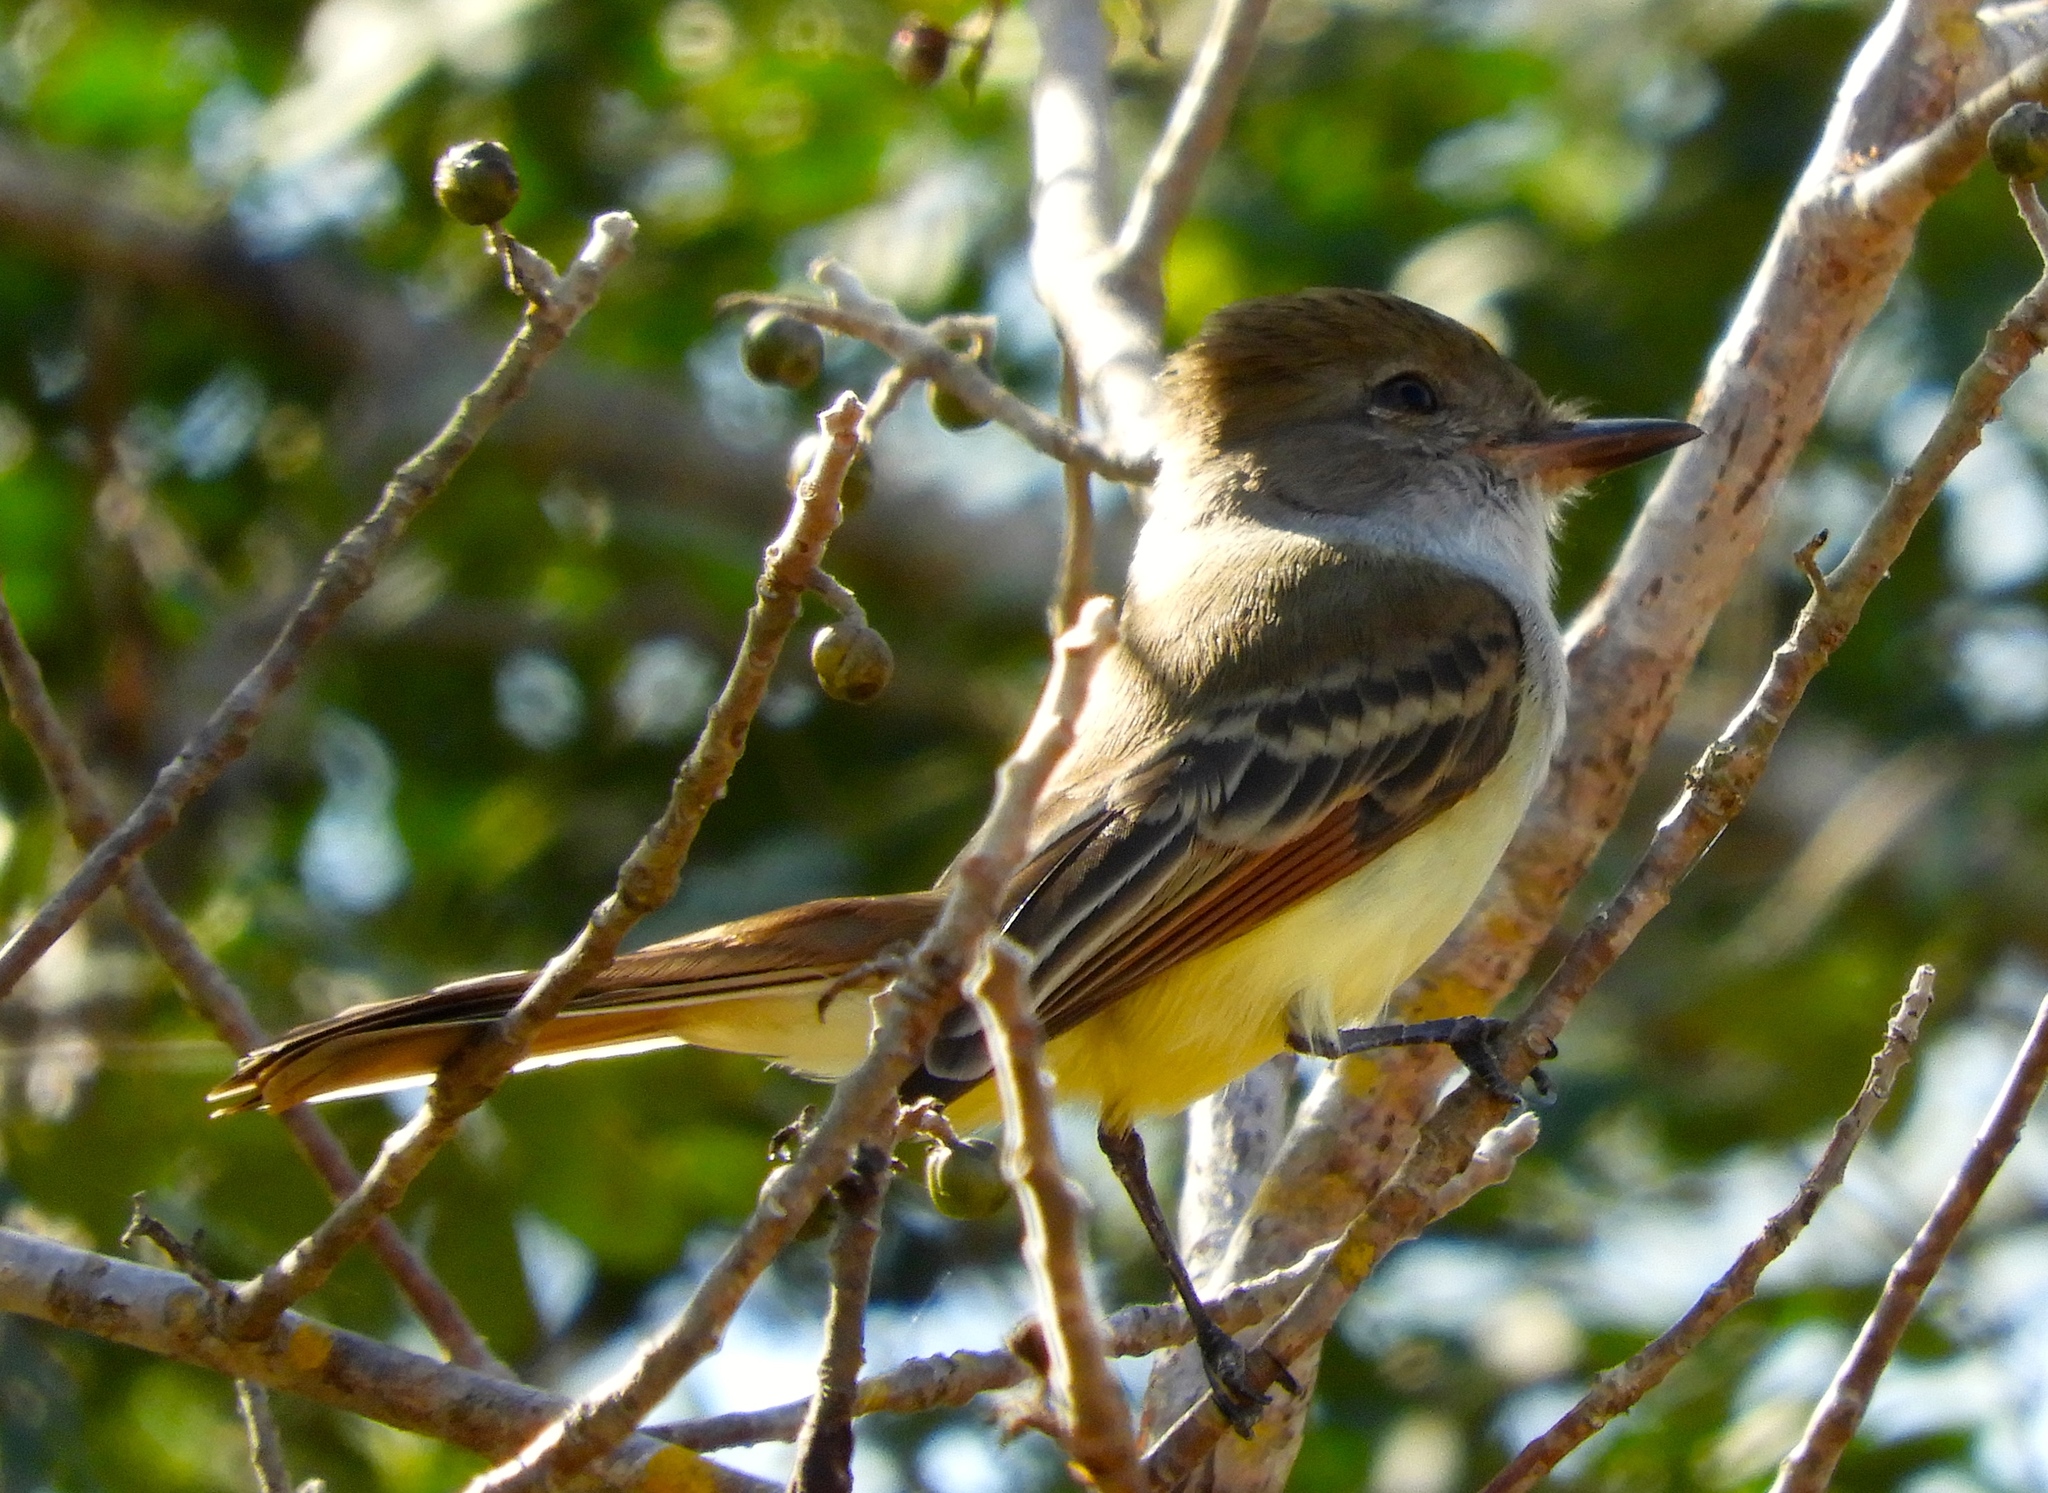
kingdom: Animalia
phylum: Chordata
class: Aves
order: Passeriformes
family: Tyrannidae
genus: Myiarchus
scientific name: Myiarchus
